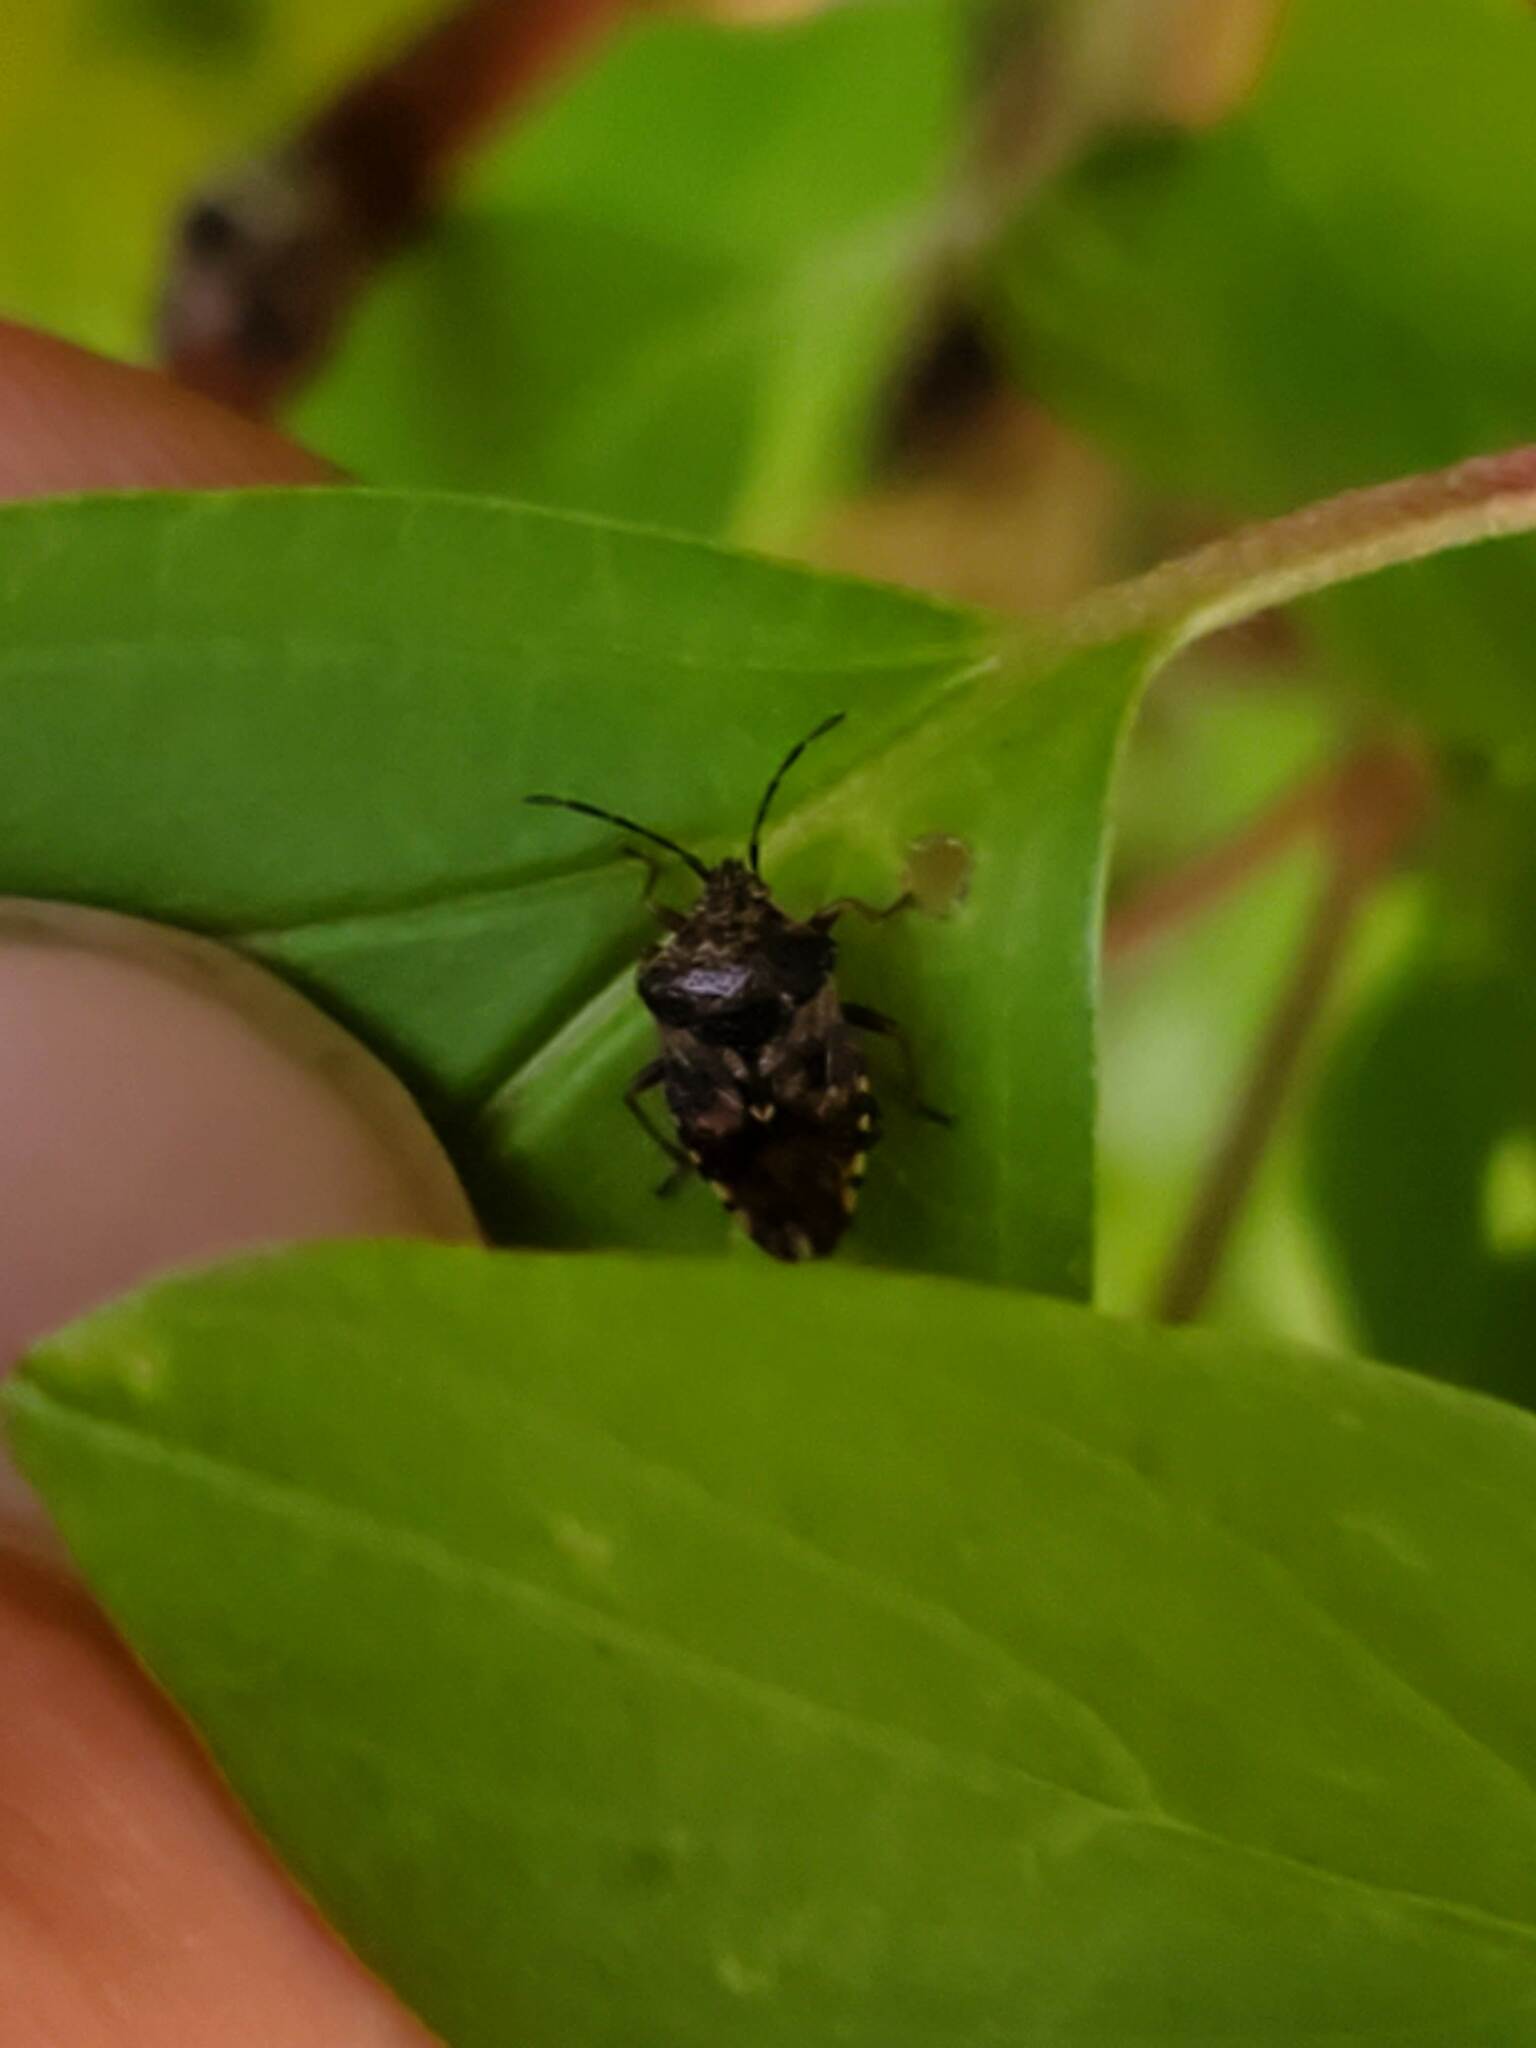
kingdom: Animalia
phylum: Arthropoda
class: Insecta
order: Hemiptera
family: Acanthosomatidae
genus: Elasmucha
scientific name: Elasmucha lateralis
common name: Shield bug
